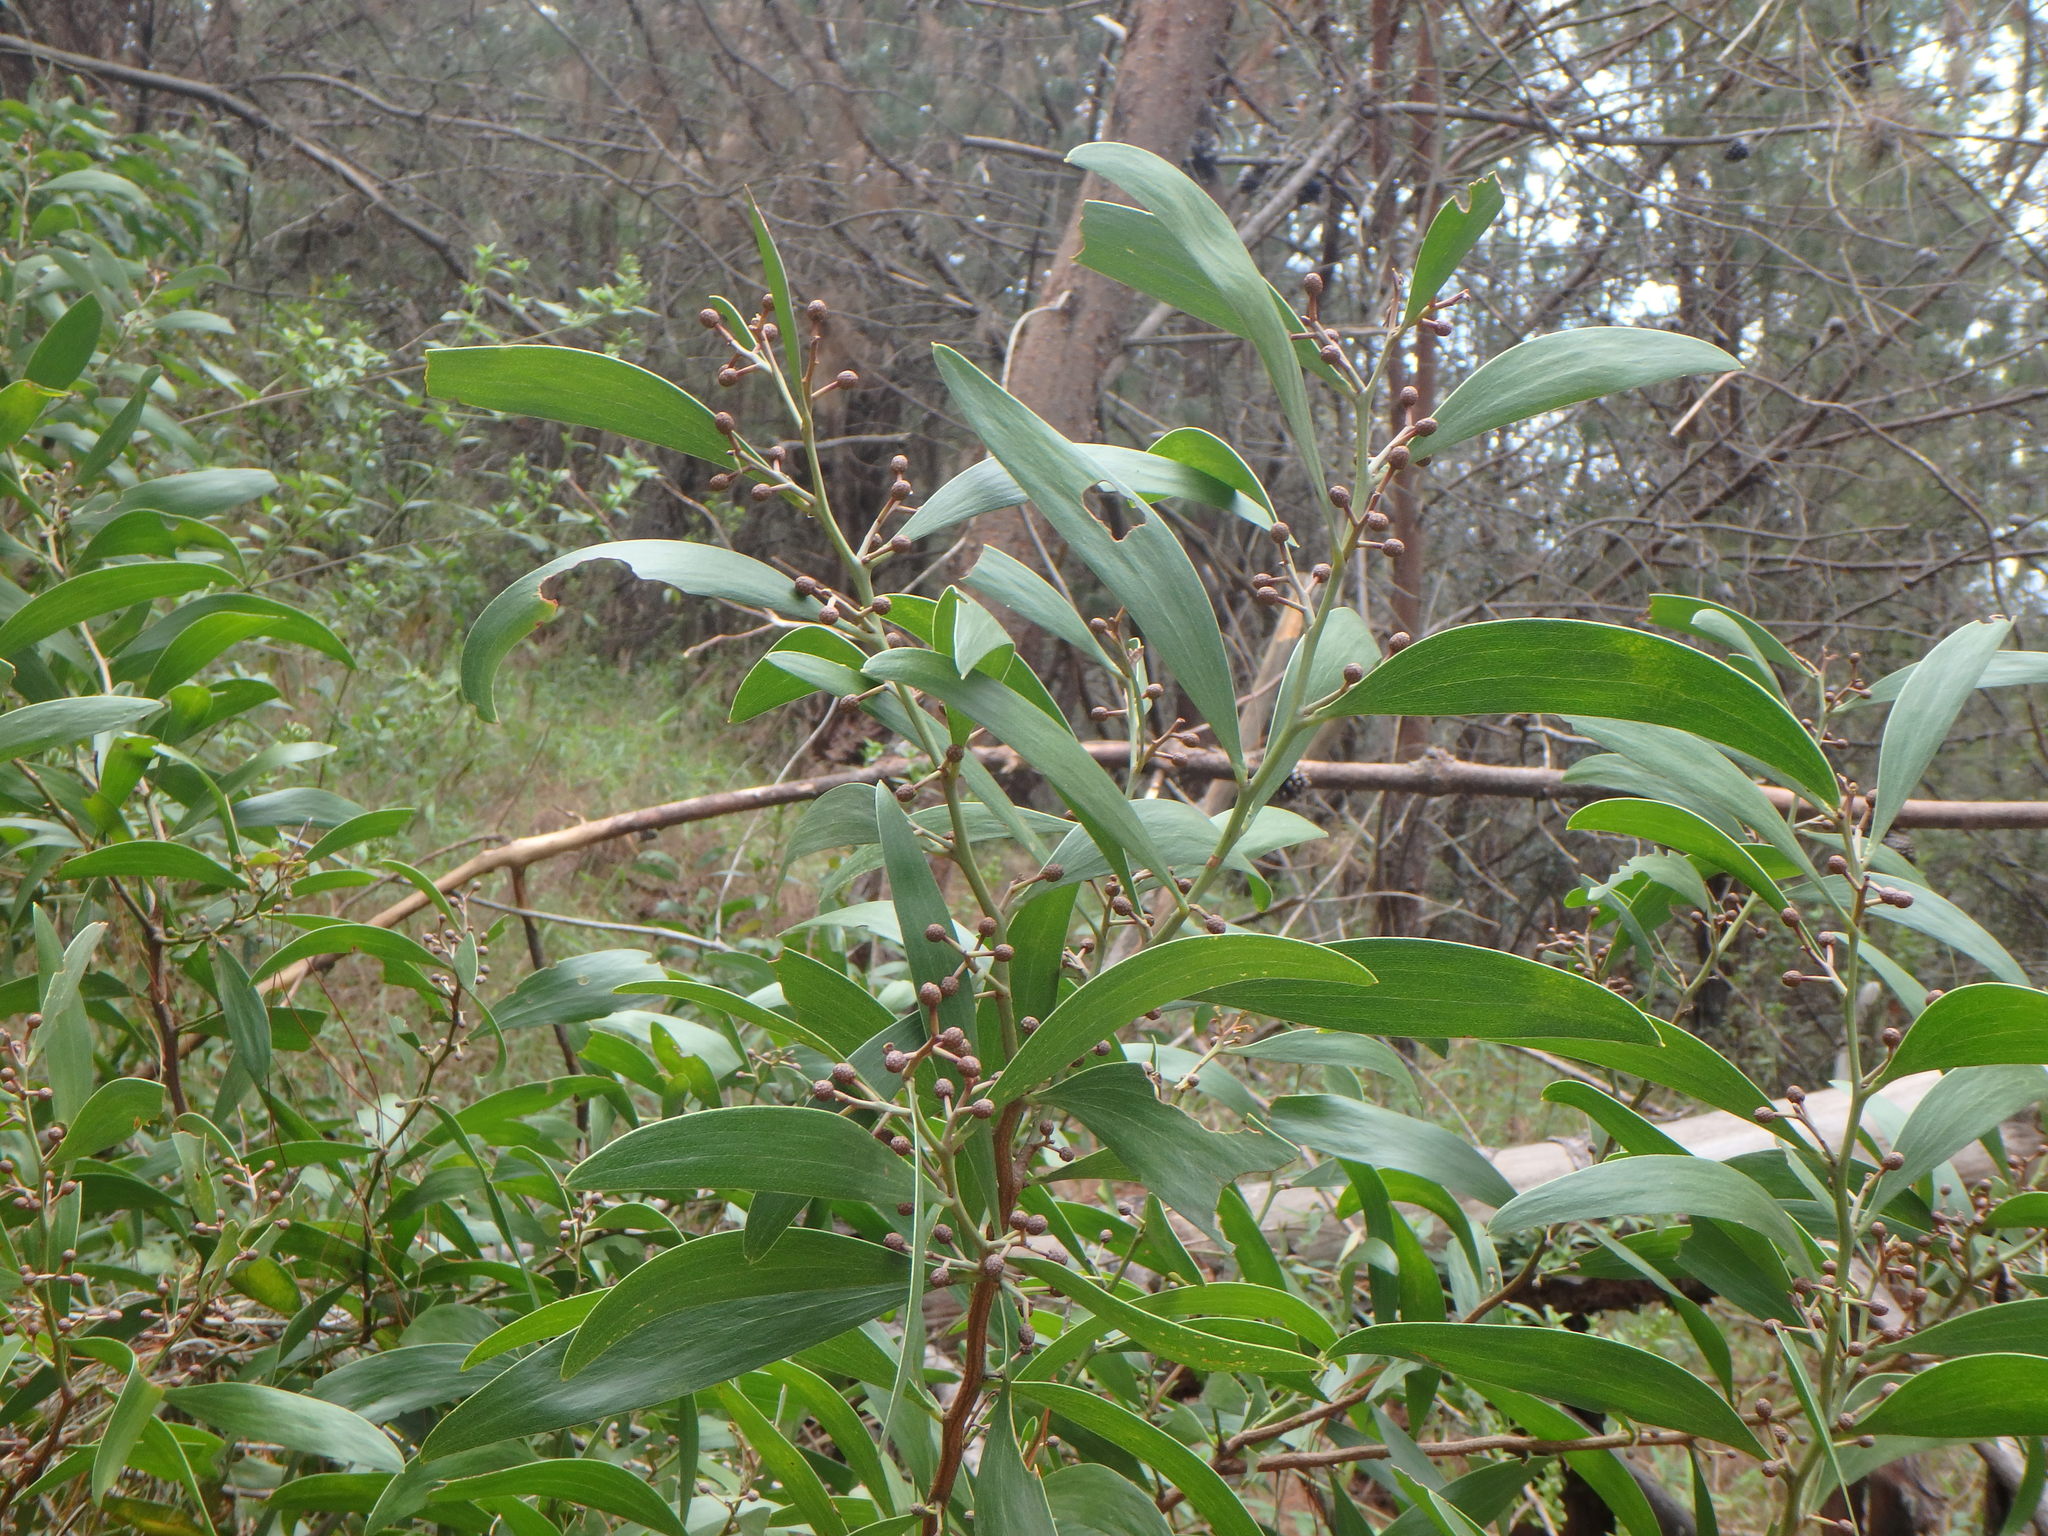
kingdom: Plantae
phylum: Tracheophyta
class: Magnoliopsida
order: Fabales
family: Fabaceae
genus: Acacia
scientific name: Acacia melanoxylon
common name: Blackwood
